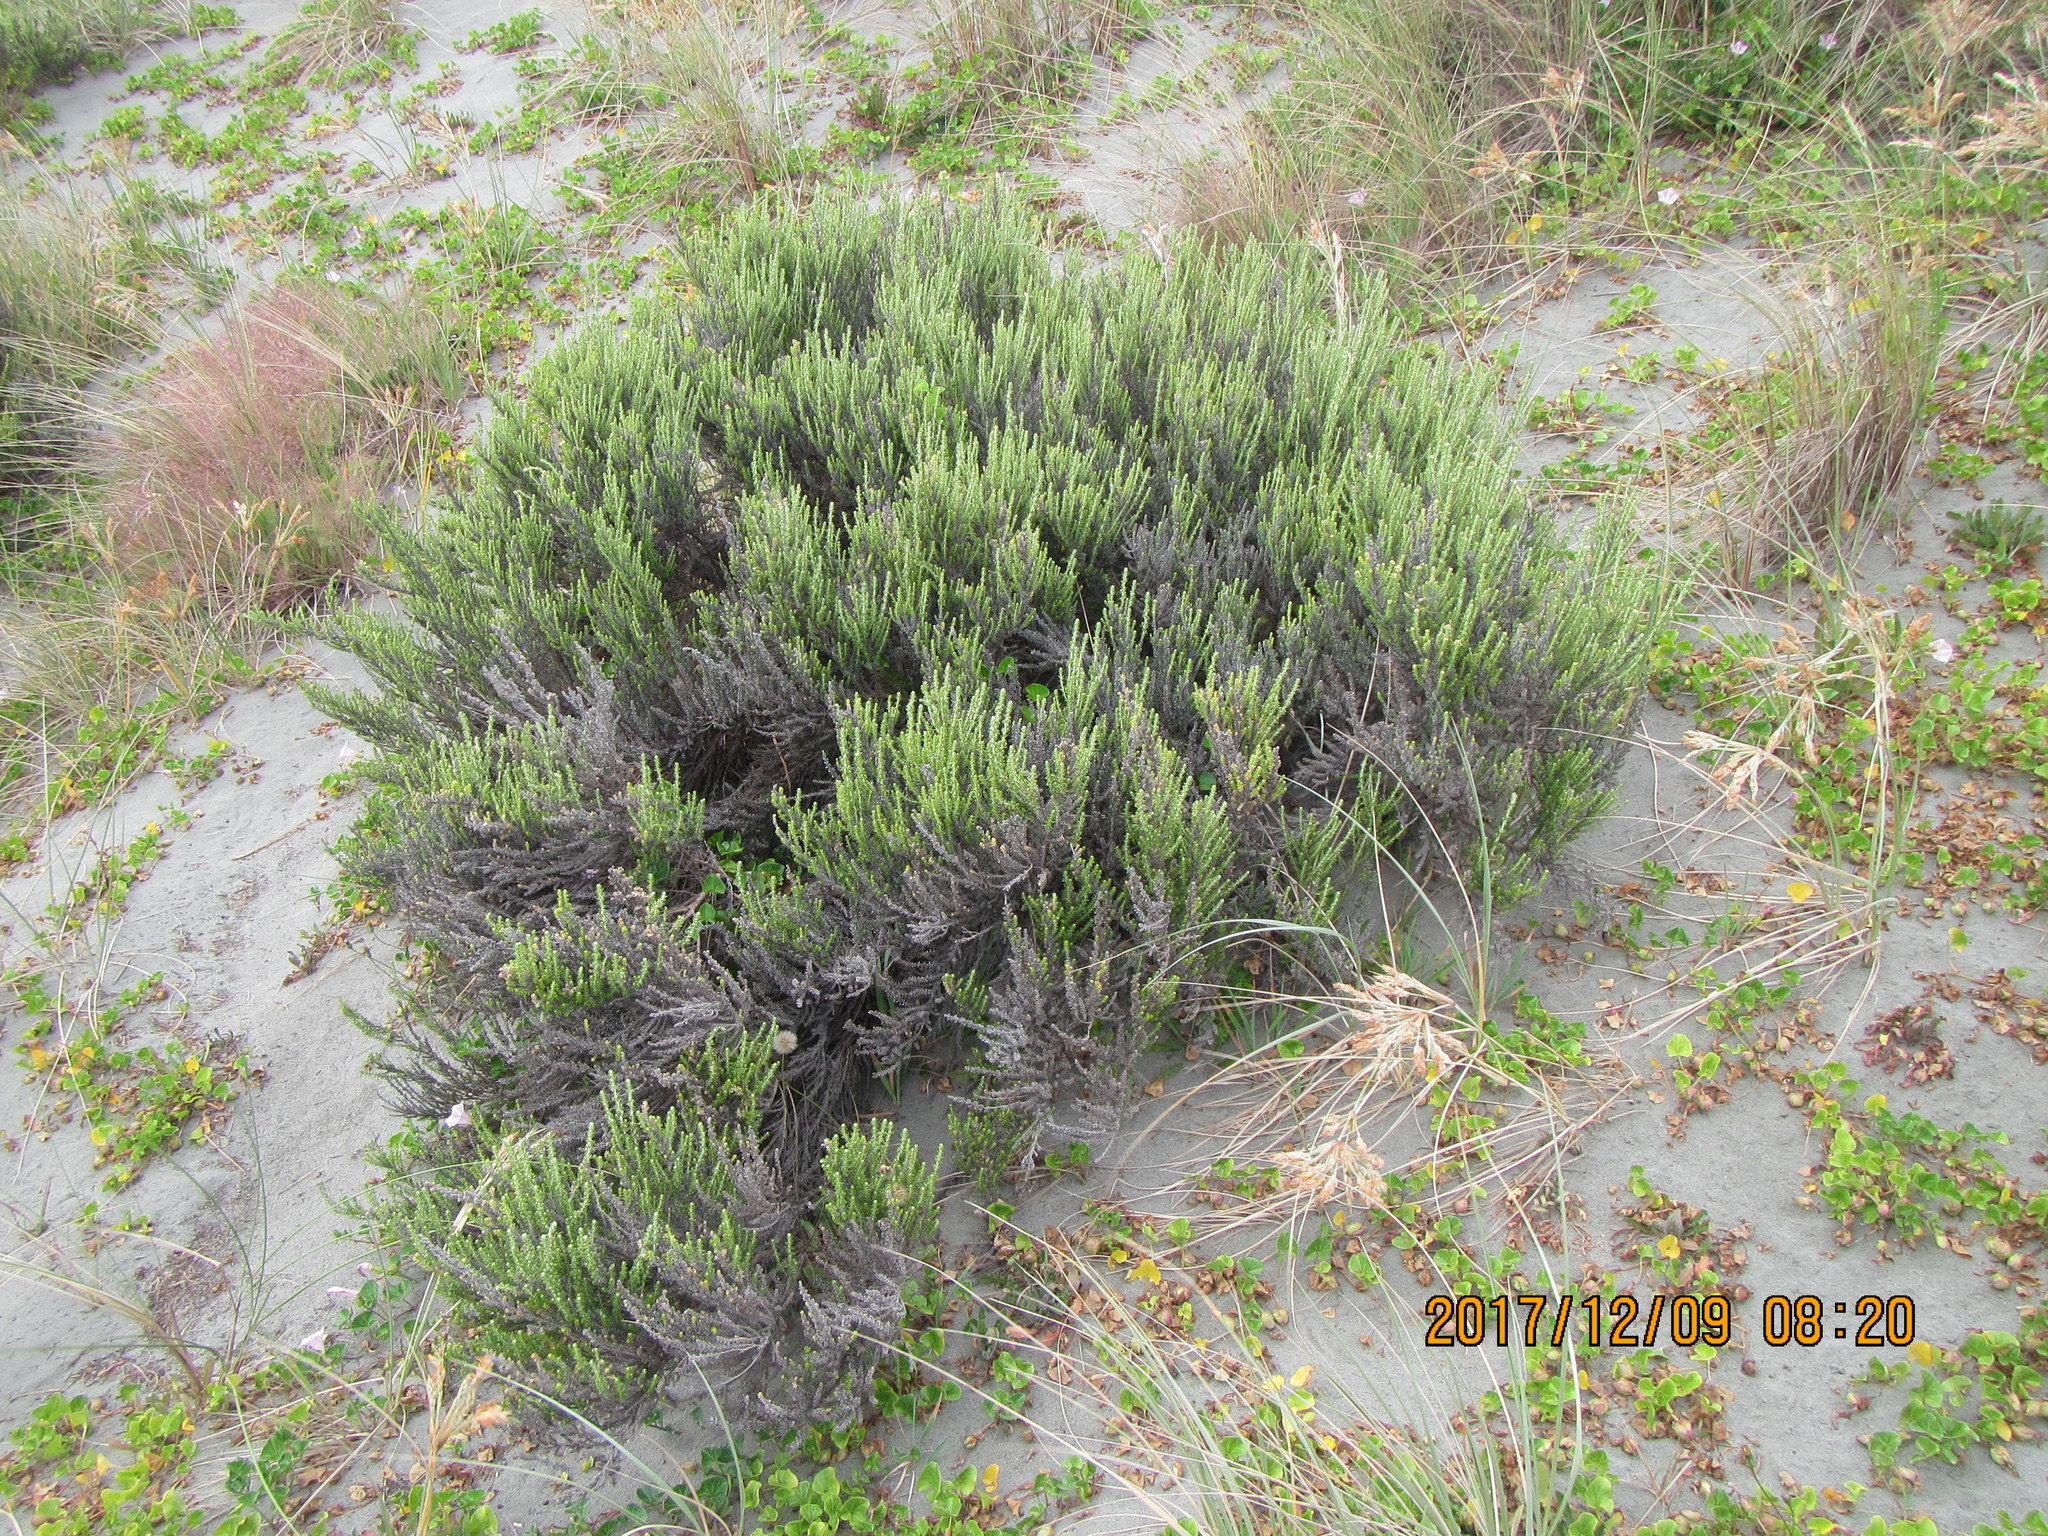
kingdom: Plantae
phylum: Tracheophyta
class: Magnoliopsida
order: Asterales
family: Asteraceae
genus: Ozothamnus
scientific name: Ozothamnus leptophyllus
